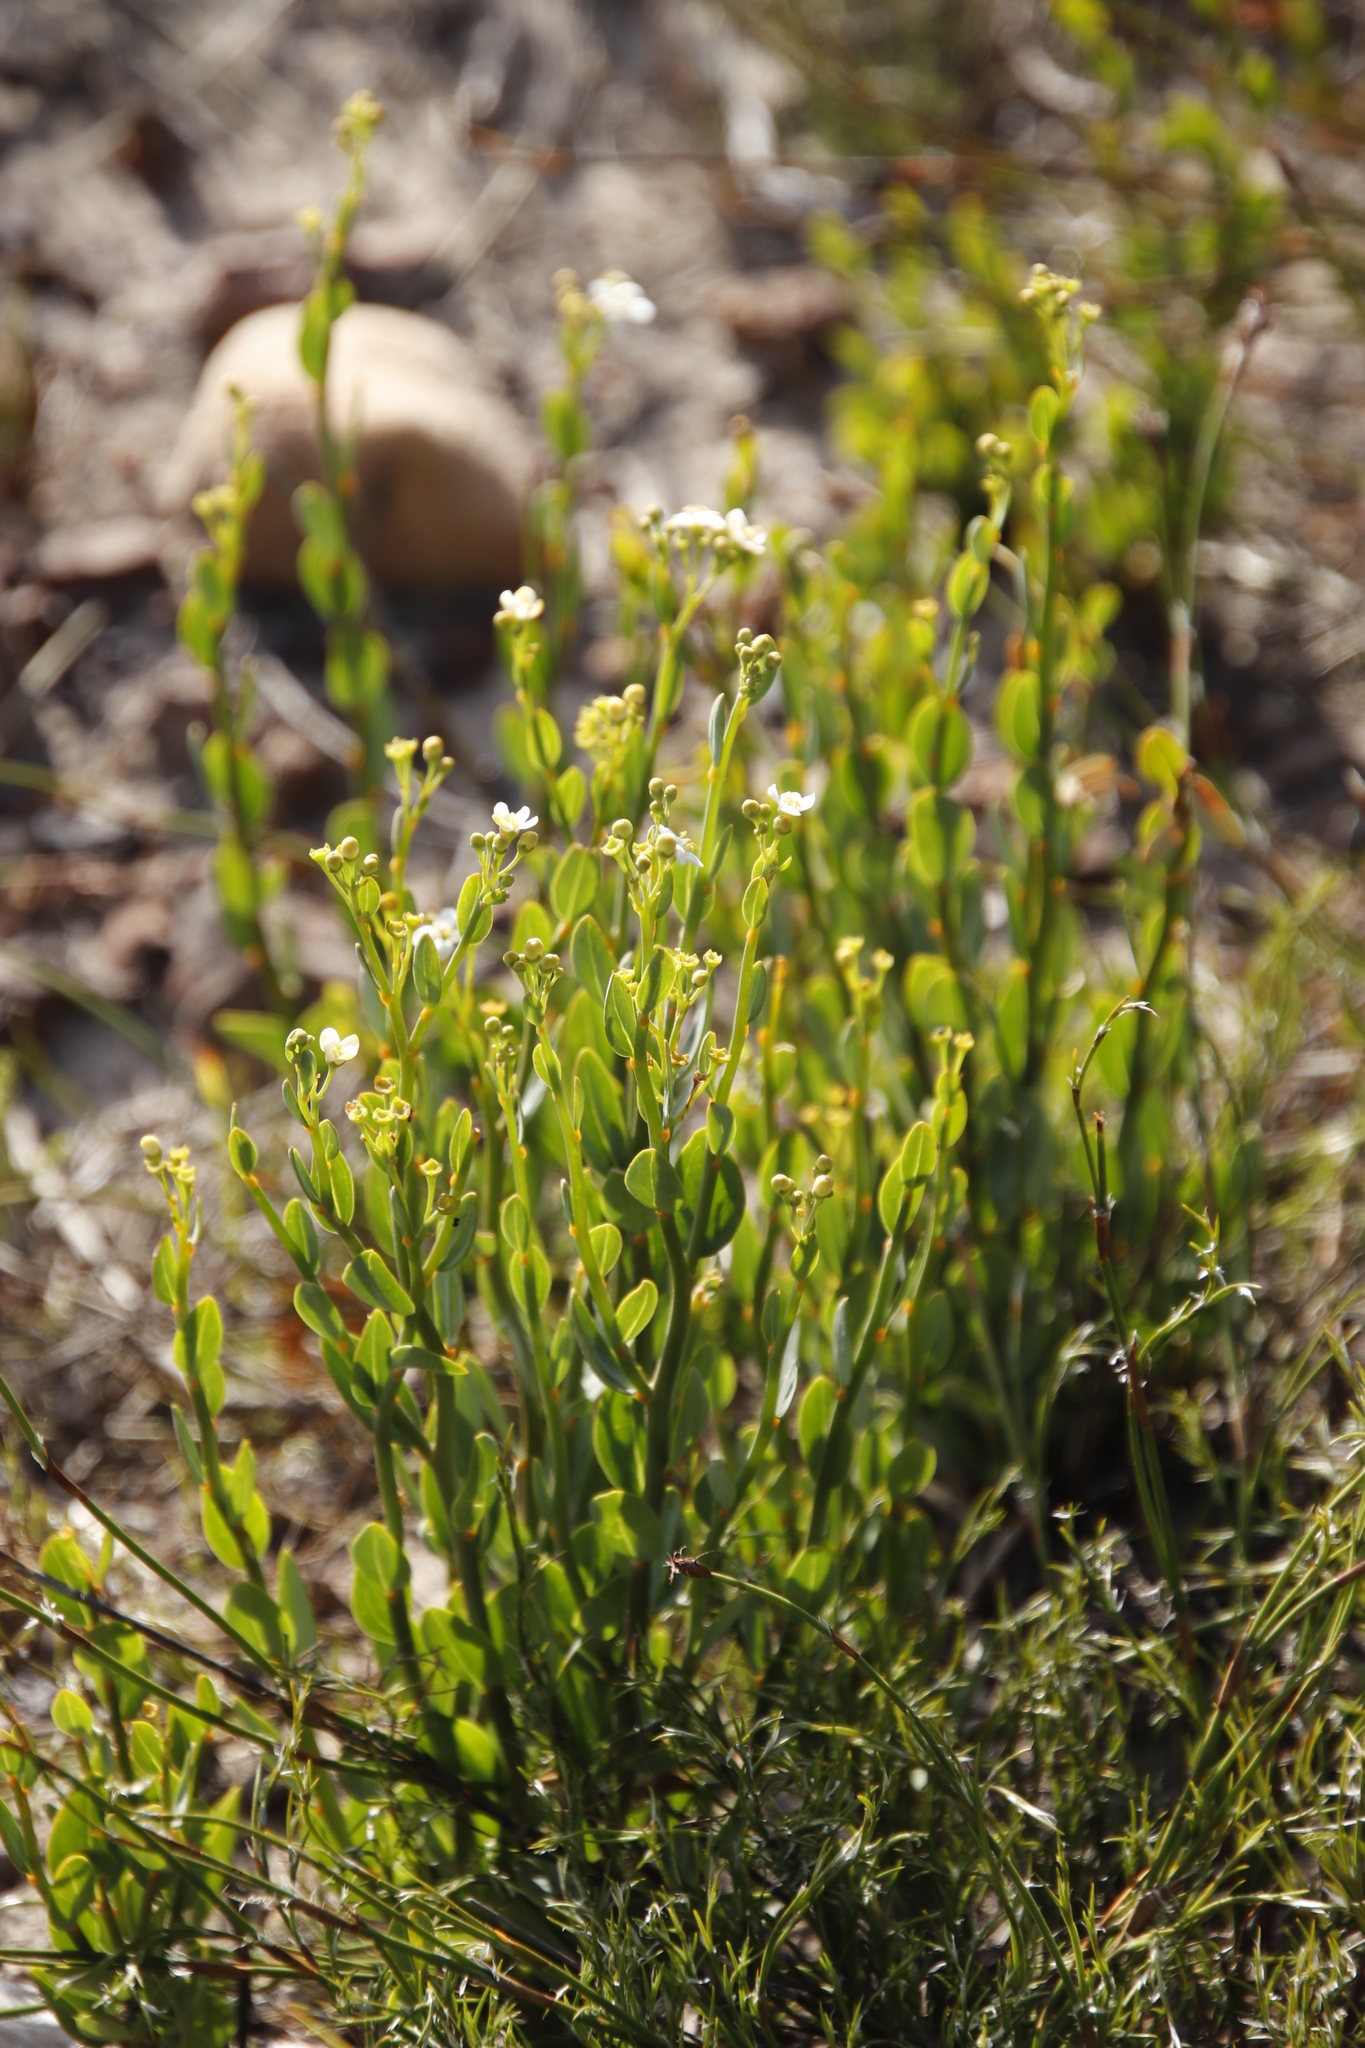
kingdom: Plantae
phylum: Tracheophyta
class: Magnoliopsida
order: Solanales
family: Montiniaceae
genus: Montinia
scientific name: Montinia caryophyllacea
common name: Wild clove-bush
